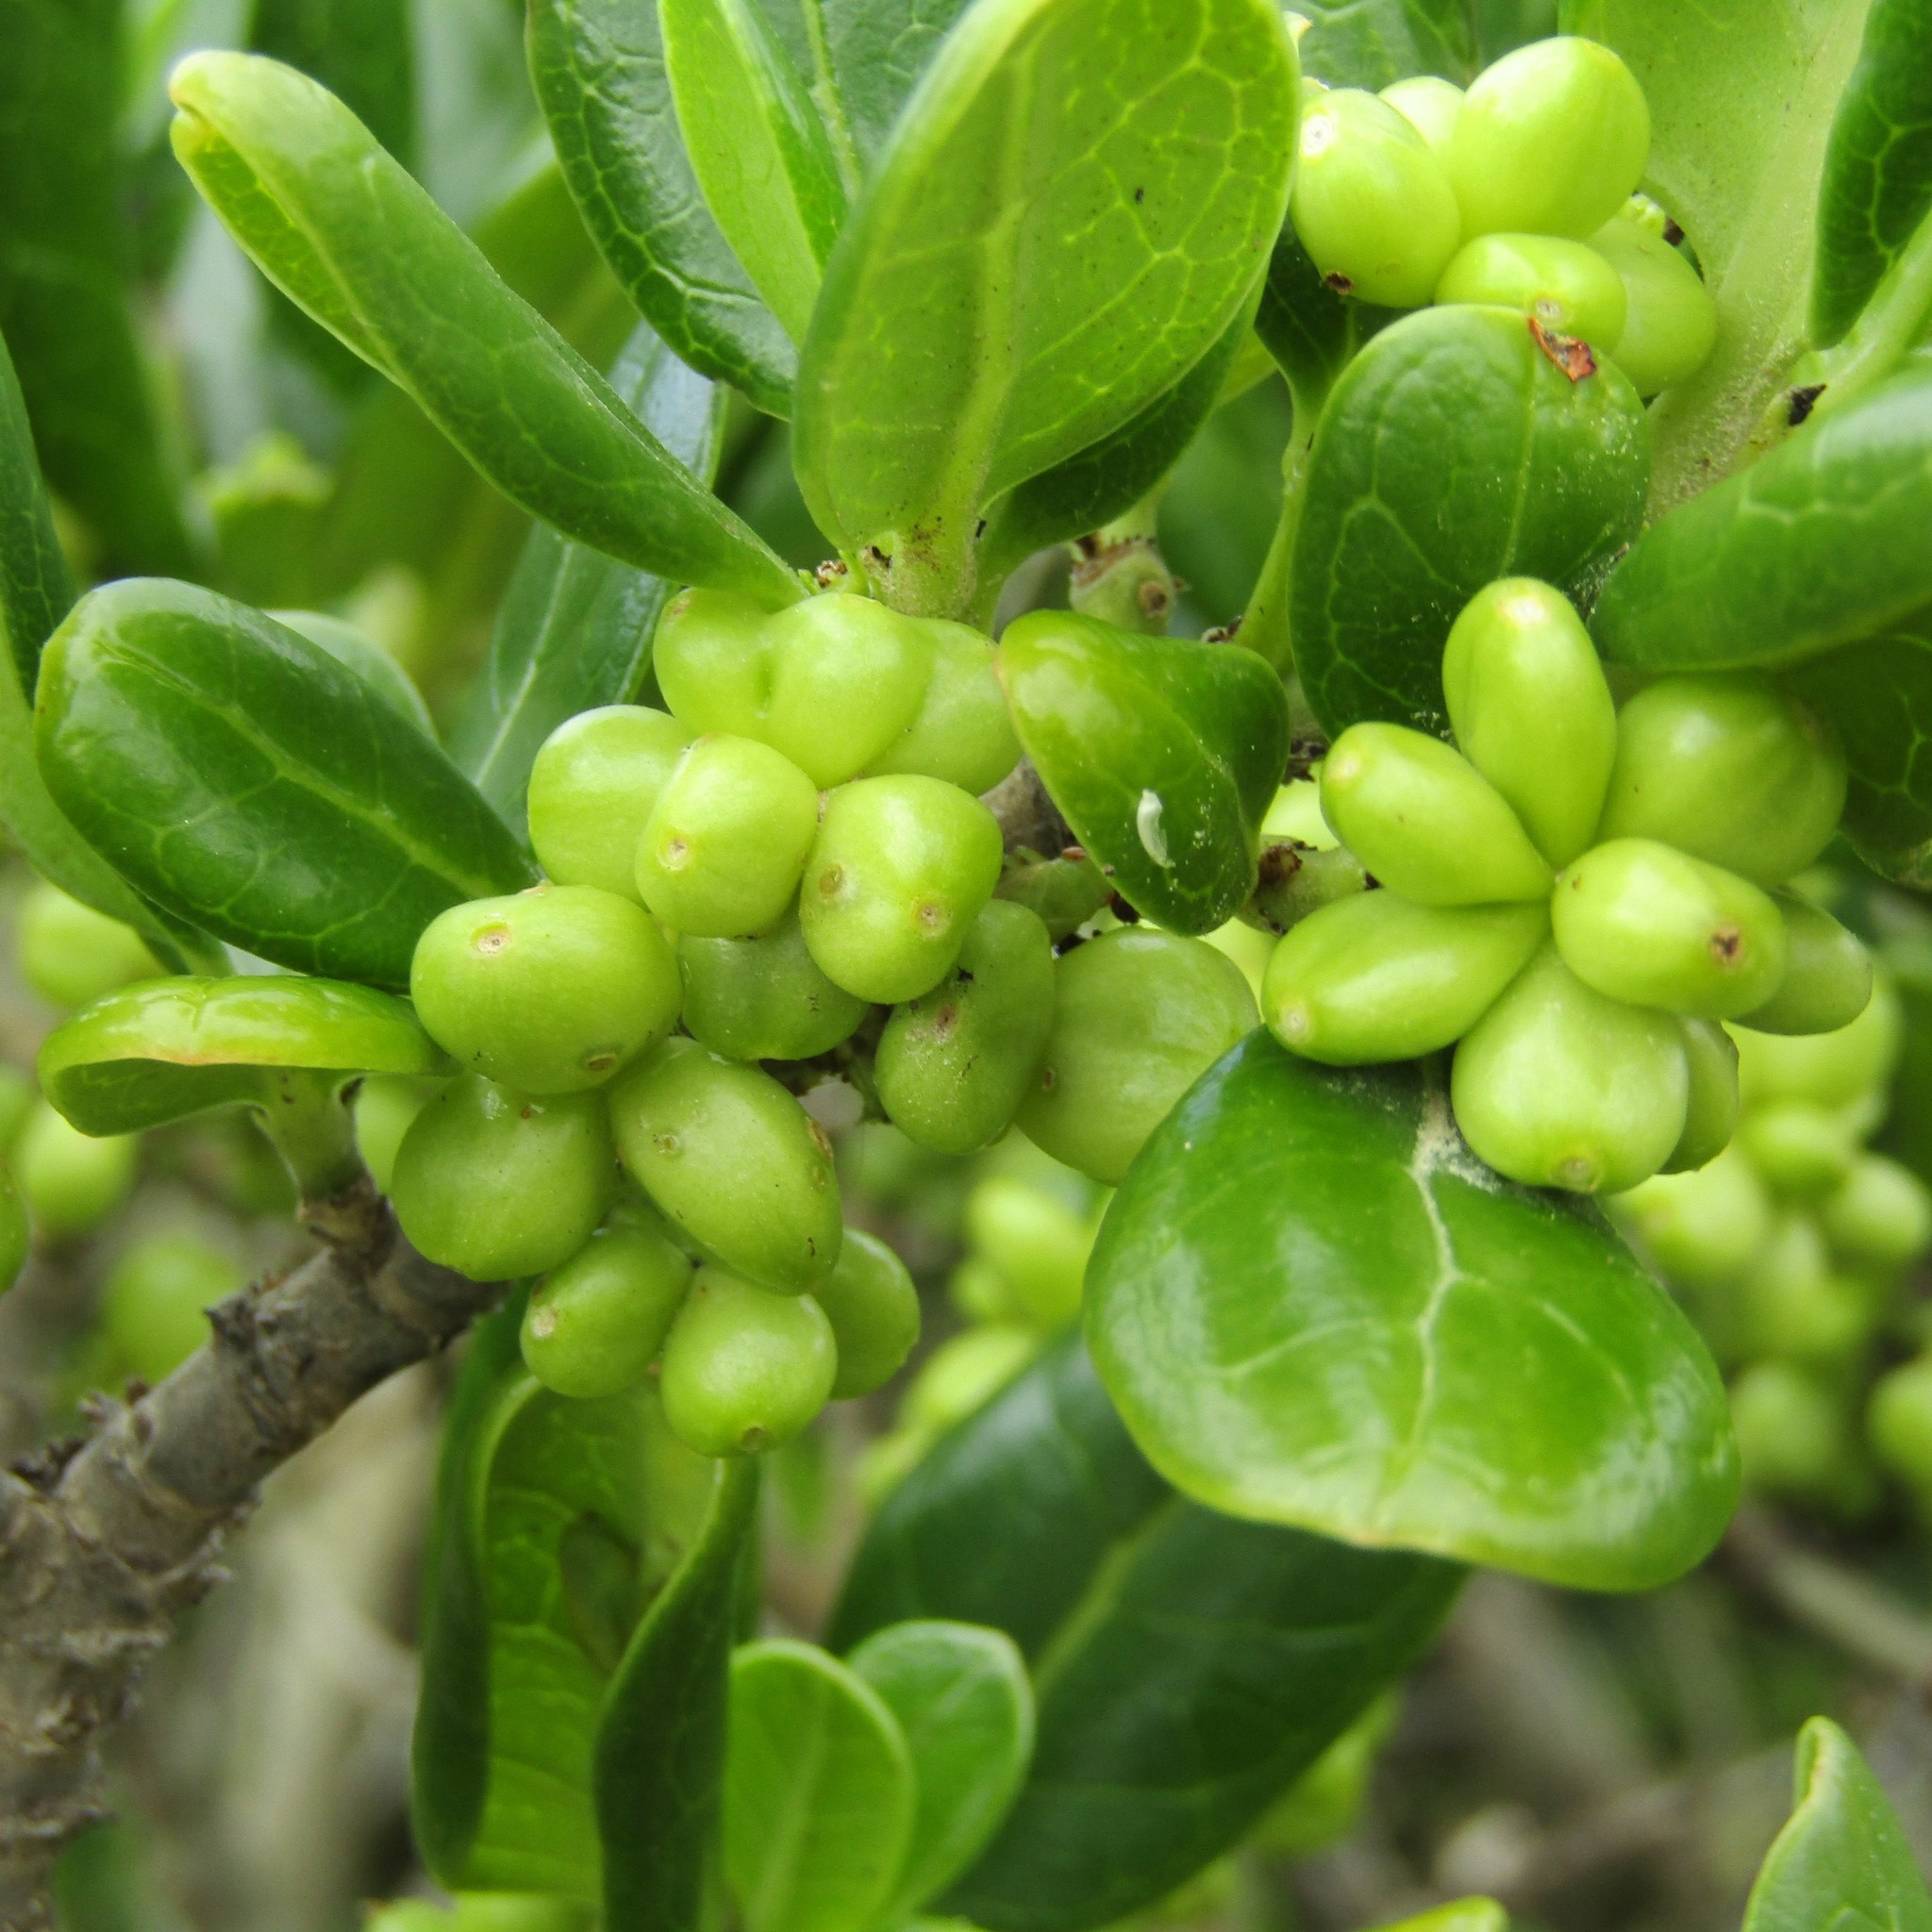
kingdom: Plantae
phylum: Tracheophyta
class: Magnoliopsida
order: Gentianales
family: Rubiaceae
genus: Coprosma
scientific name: Coprosma repens
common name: Tree bedstraw
